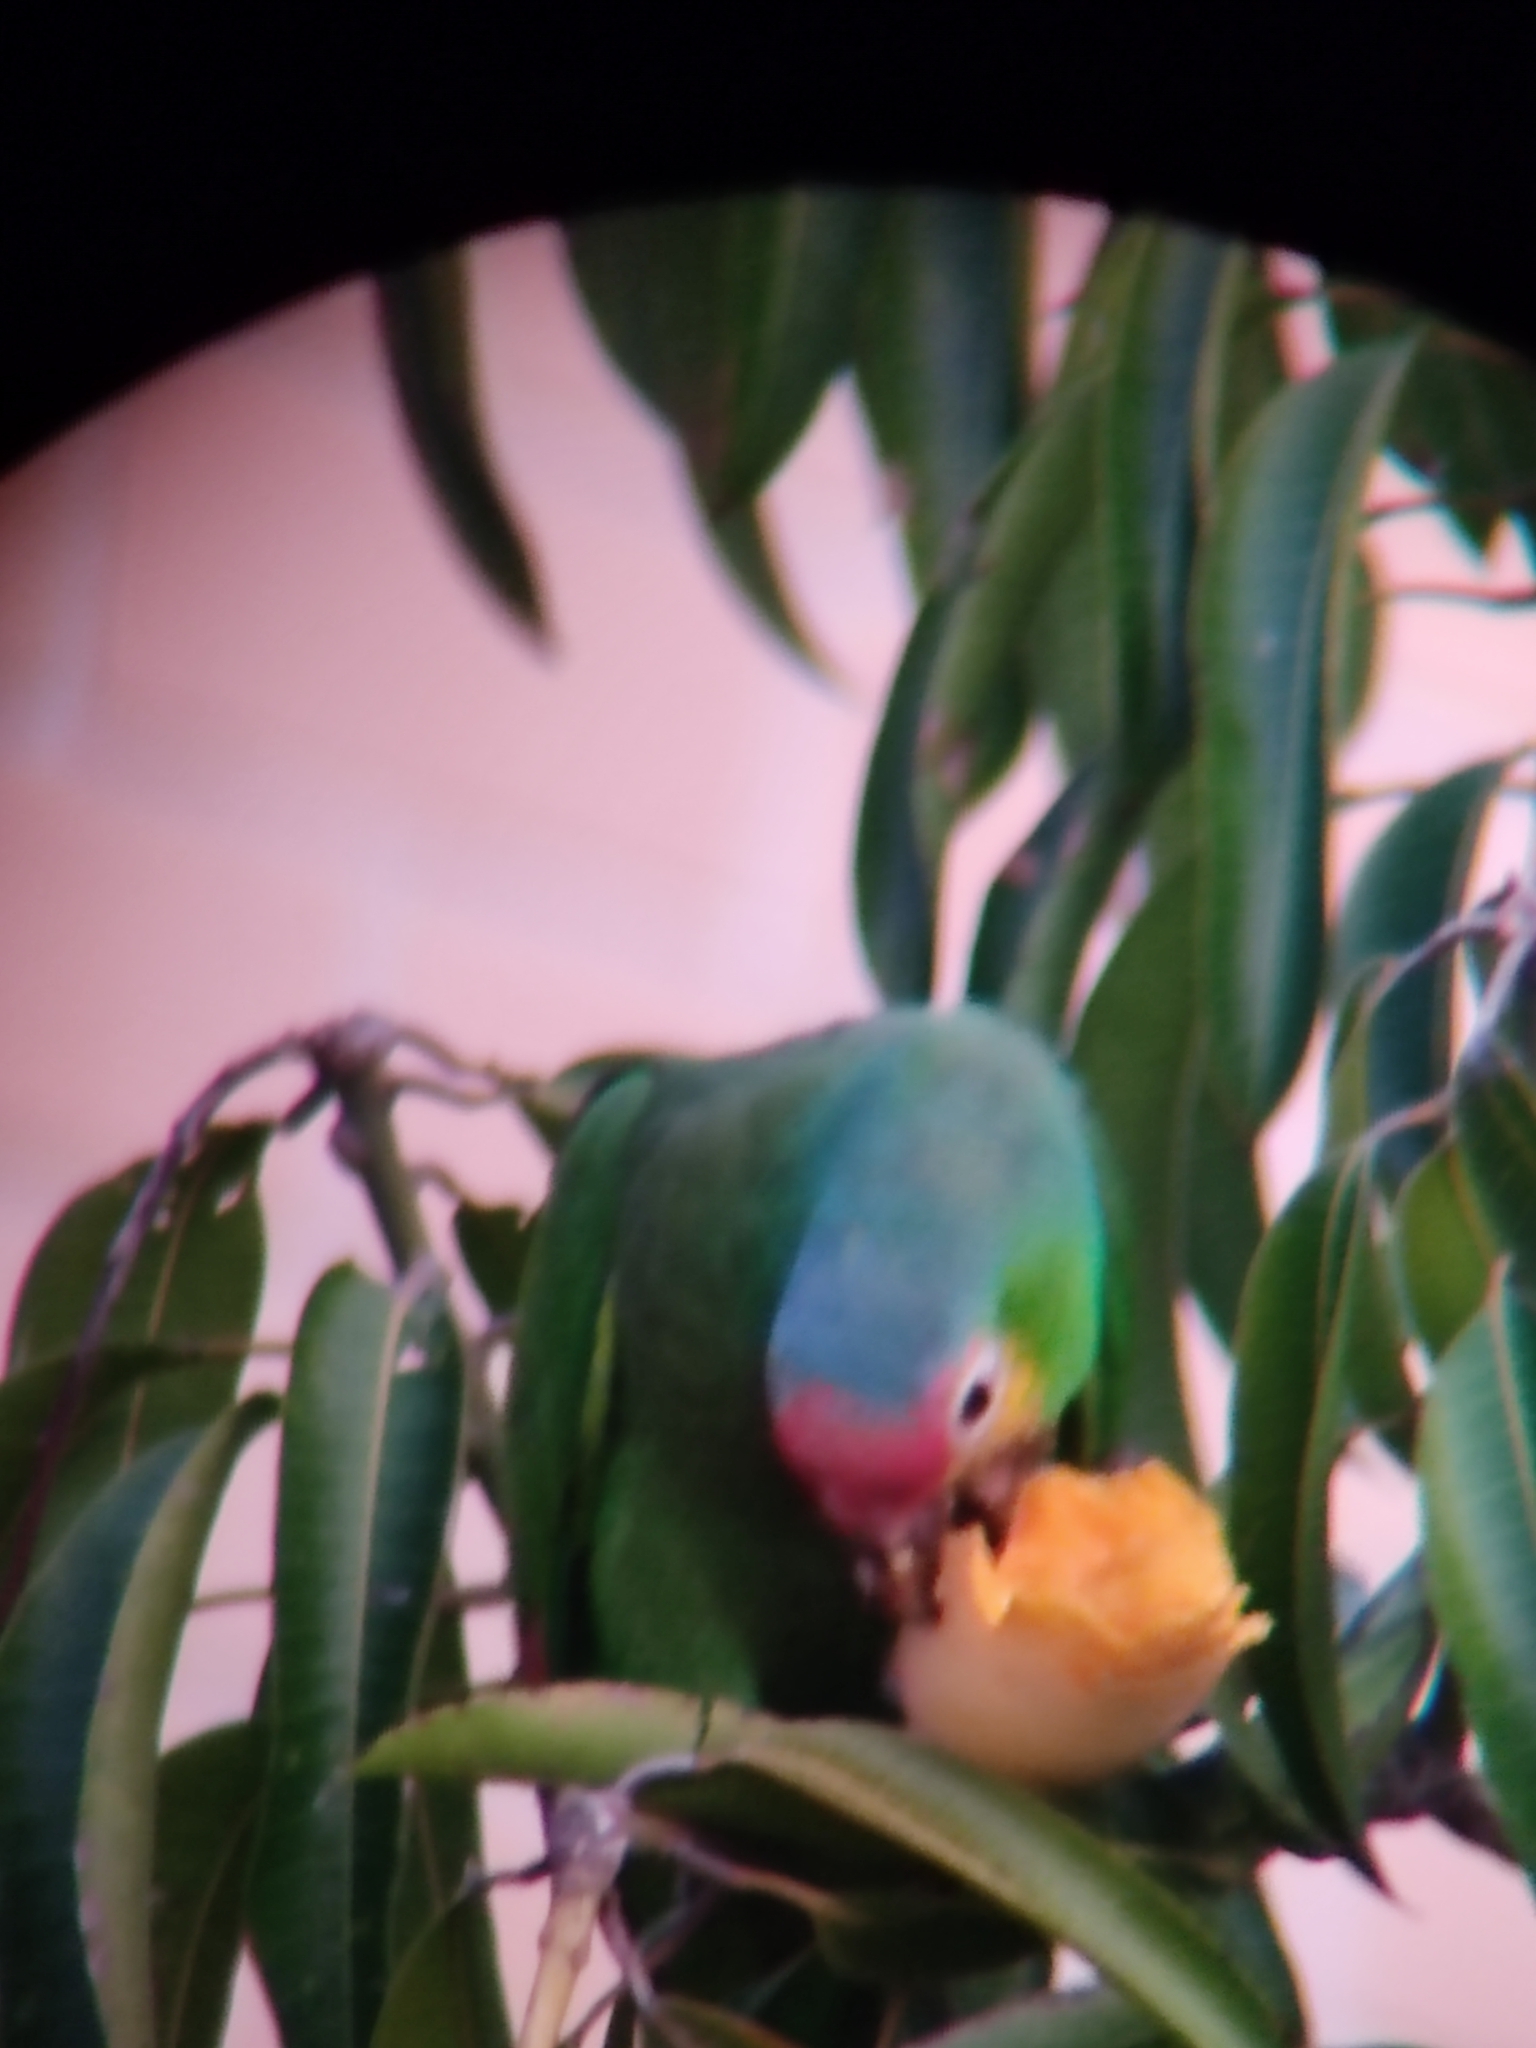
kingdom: Animalia
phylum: Chordata
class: Aves
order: Psittaciformes
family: Psittacidae
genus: Amazona
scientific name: Amazona autumnalis
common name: Red-lored amazon
